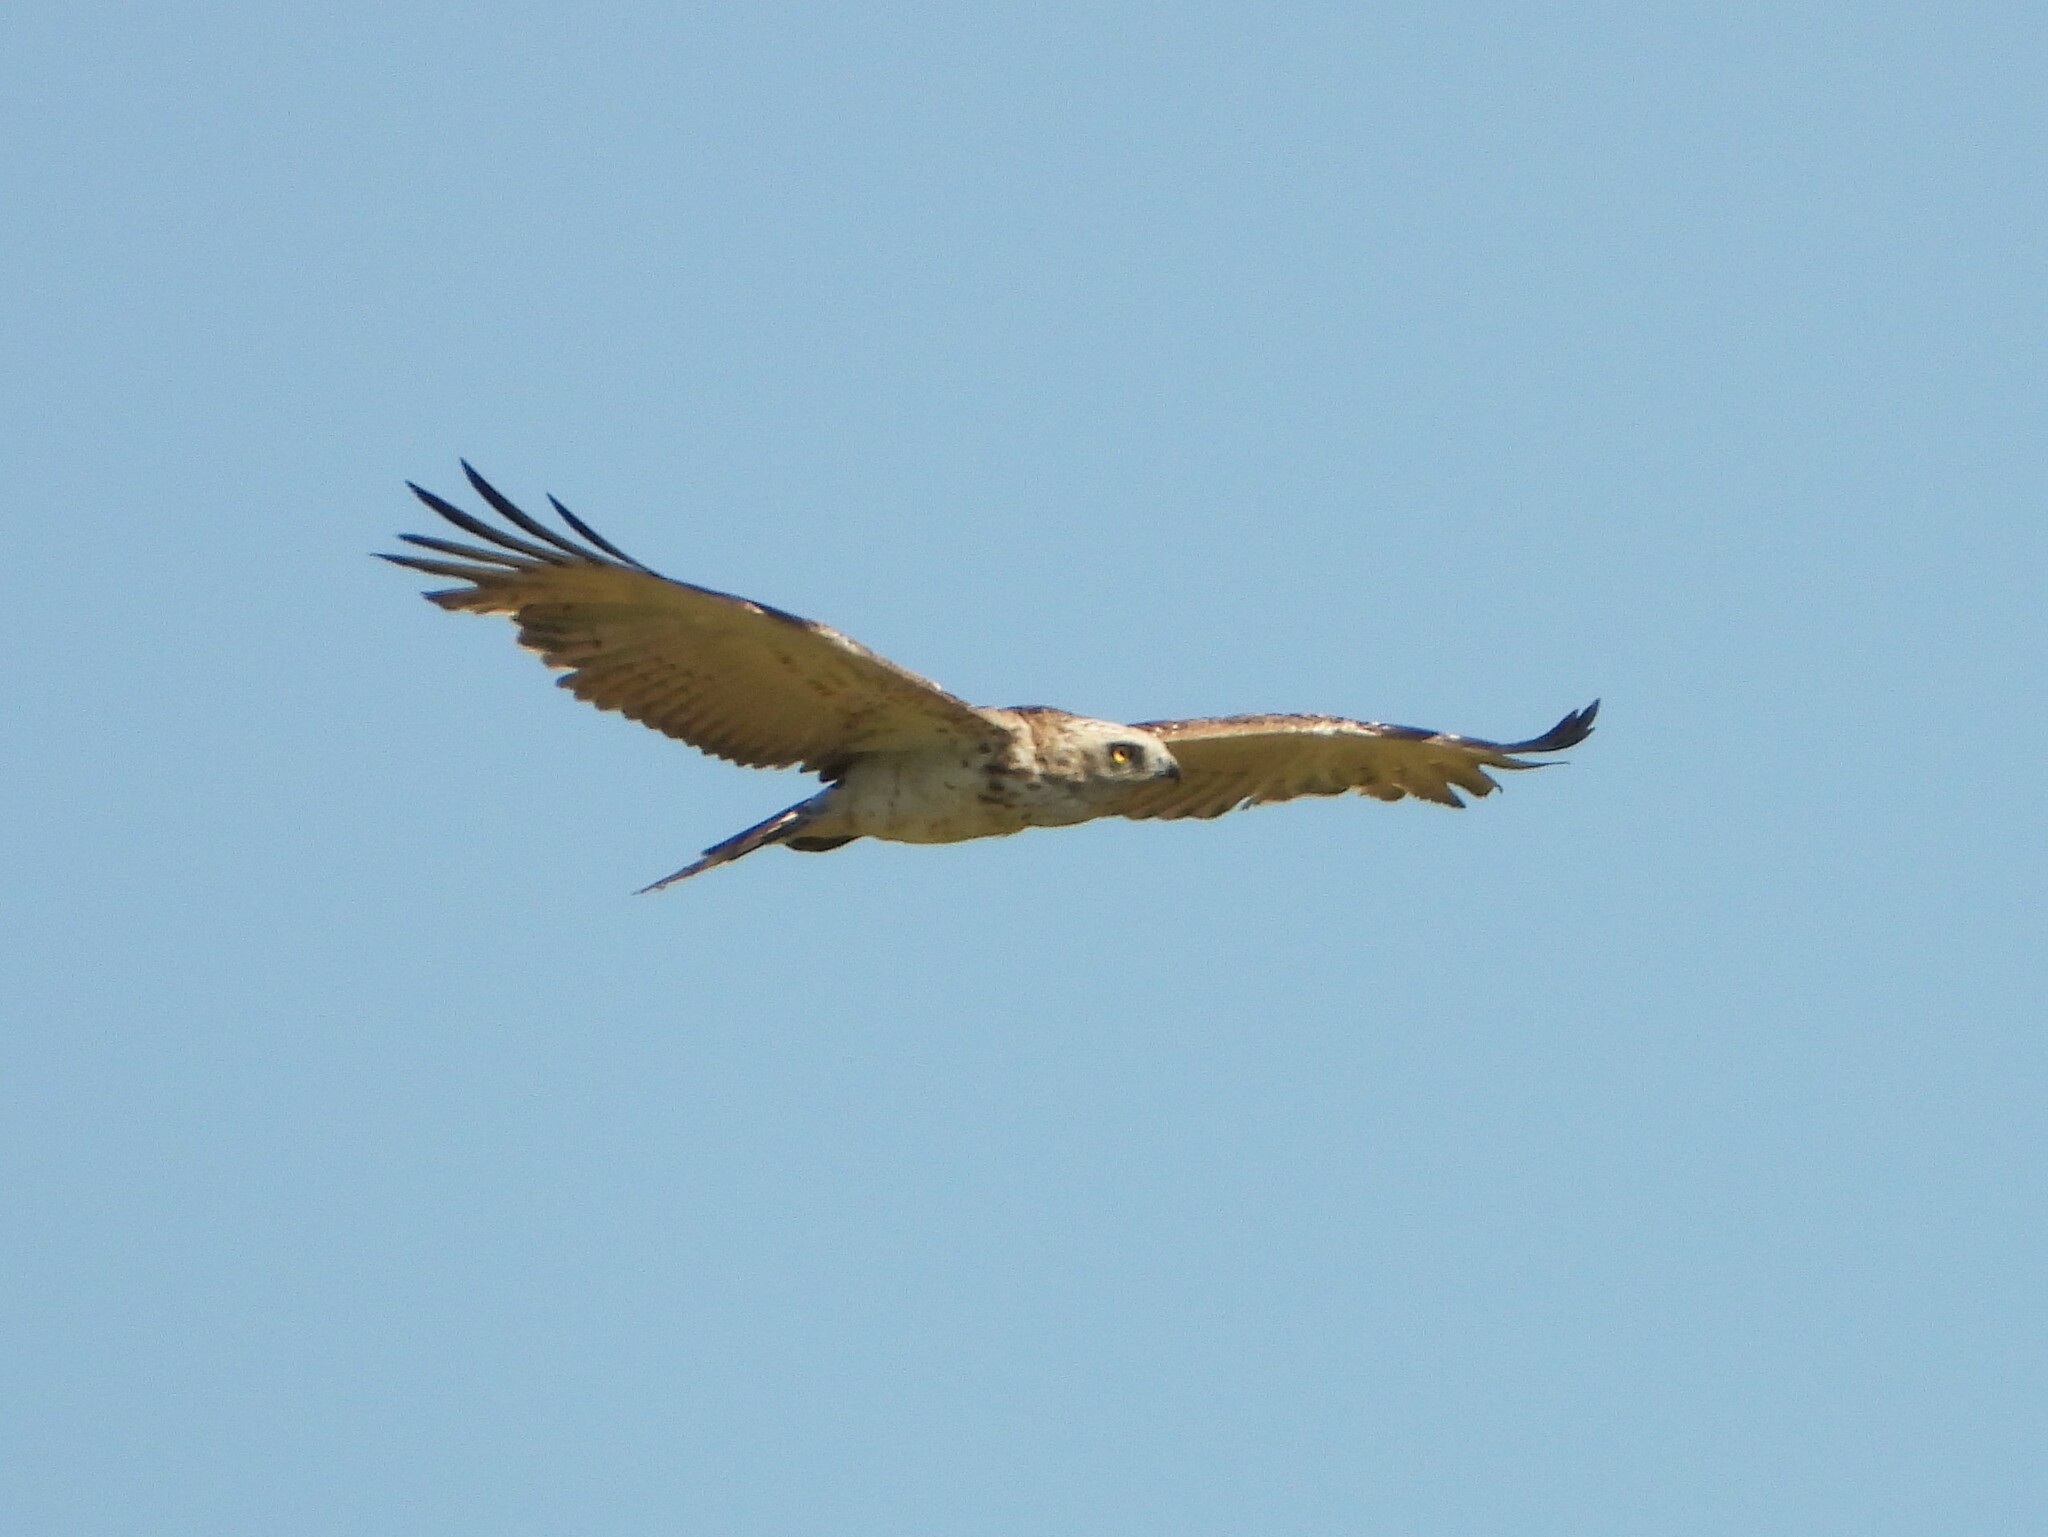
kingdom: Animalia
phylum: Chordata
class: Aves
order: Accipitriformes
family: Accipitridae
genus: Circaetus
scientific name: Circaetus gallicus
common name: Short-toed snake eagle
